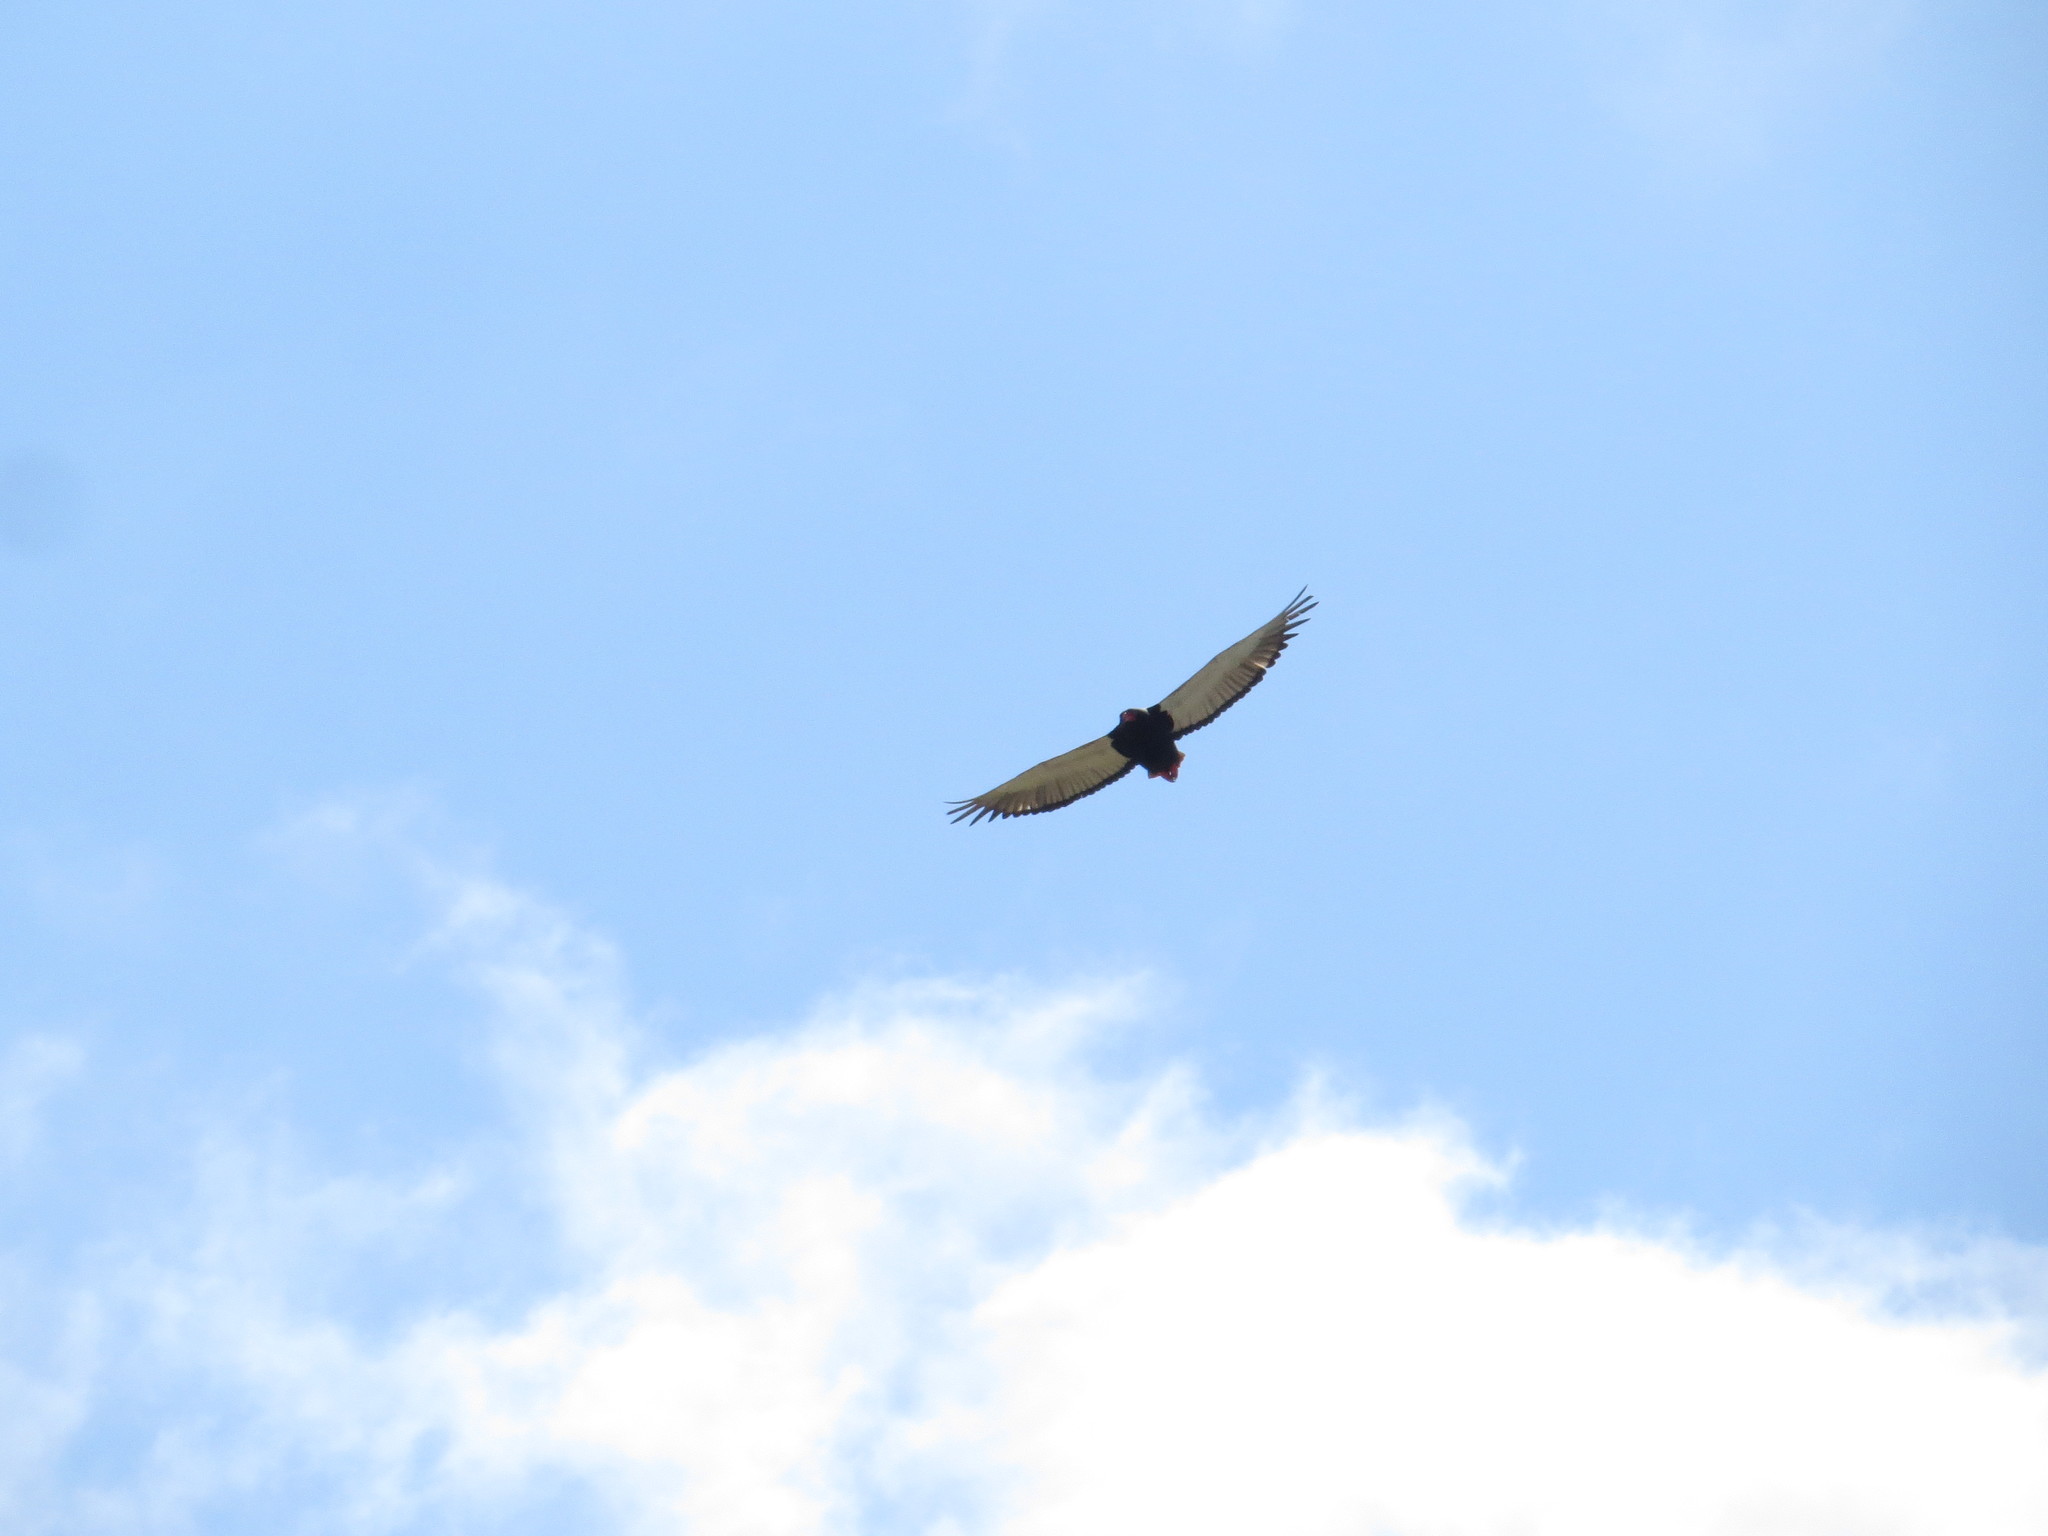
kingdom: Animalia
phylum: Chordata
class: Aves
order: Accipitriformes
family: Accipitridae
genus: Terathopius
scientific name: Terathopius ecaudatus
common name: Bateleur
